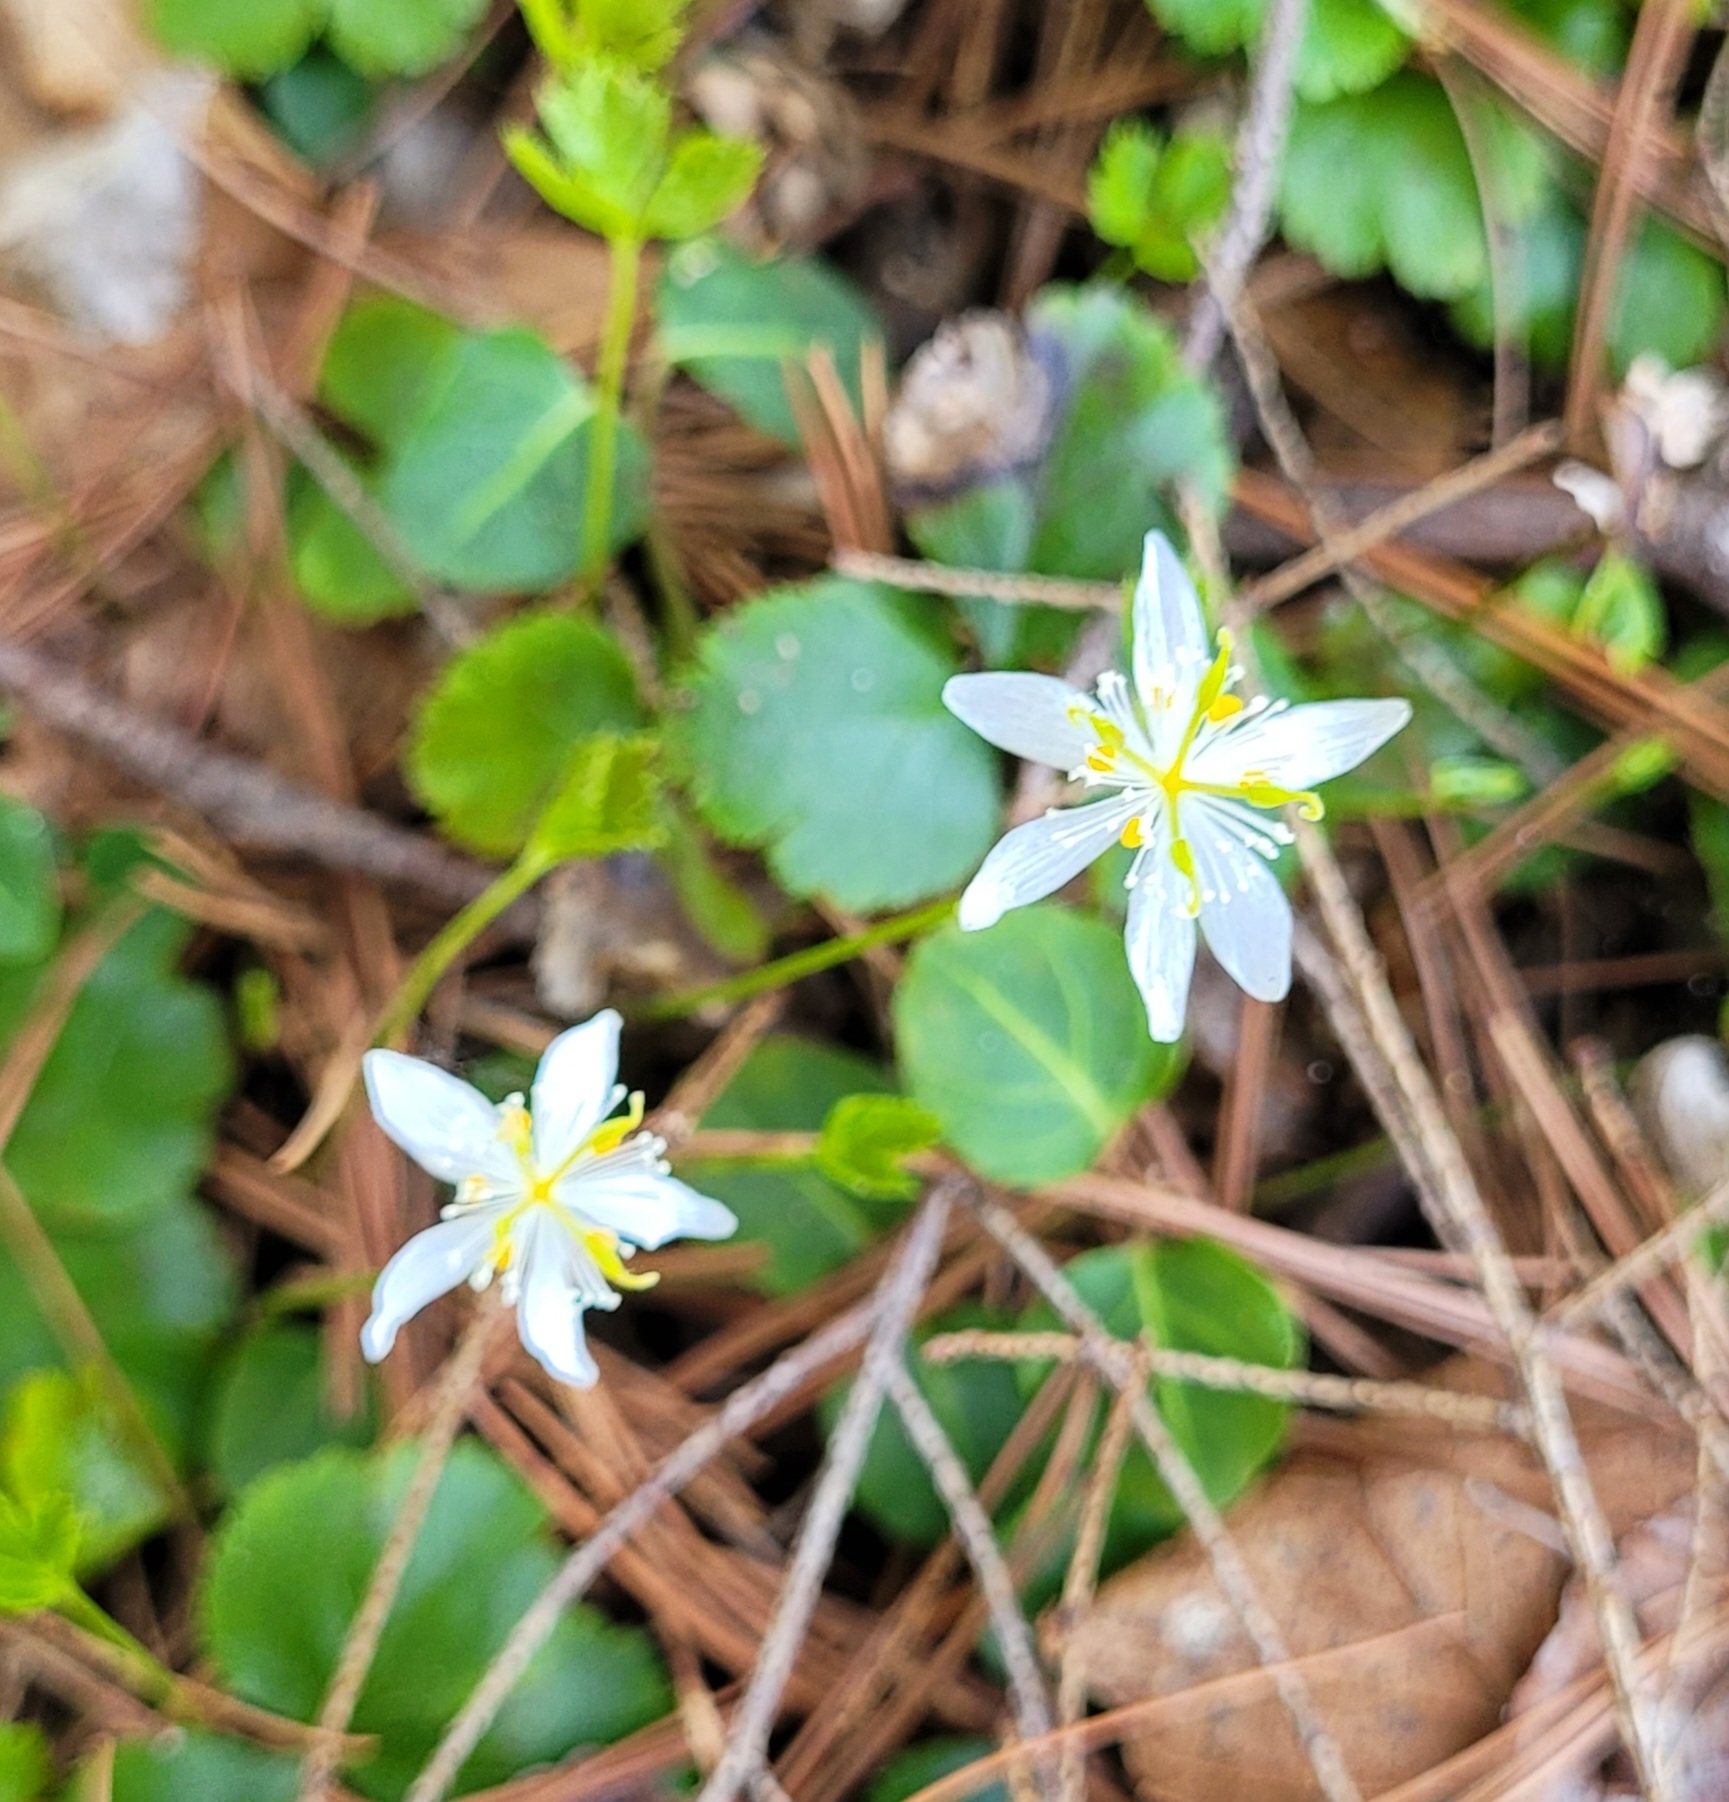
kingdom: Plantae
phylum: Tracheophyta
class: Magnoliopsida
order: Ranunculales
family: Ranunculaceae
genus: Coptis
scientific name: Coptis trifolia
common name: Canker-root
